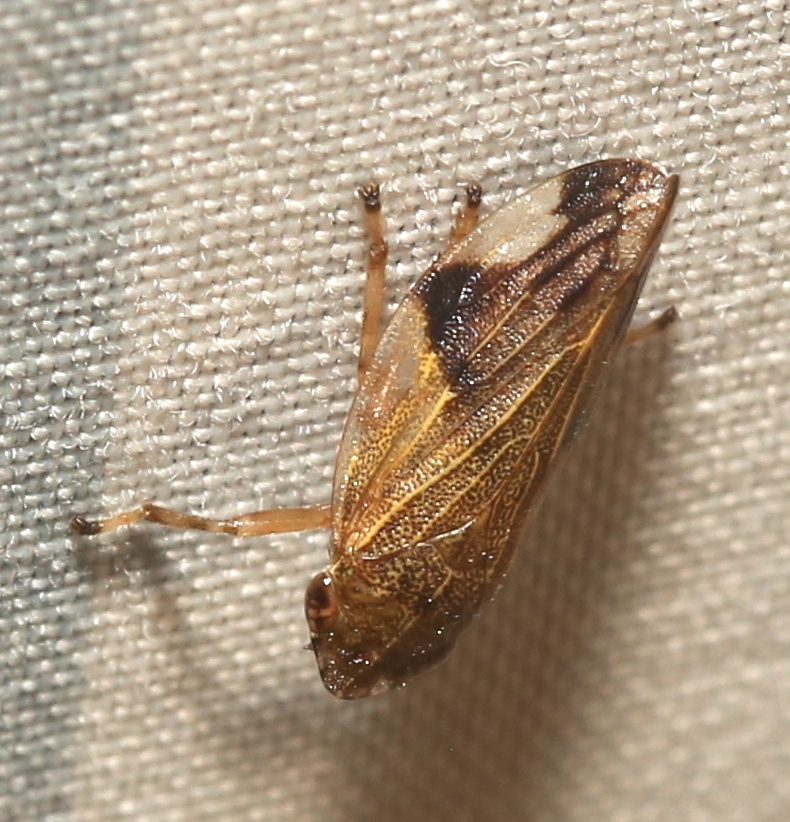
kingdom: Animalia
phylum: Arthropoda
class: Insecta
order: Hemiptera
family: Aphrophoridae
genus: Aphrophora
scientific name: Aphrophora quadrinotata
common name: Four-spotted spittlebug
